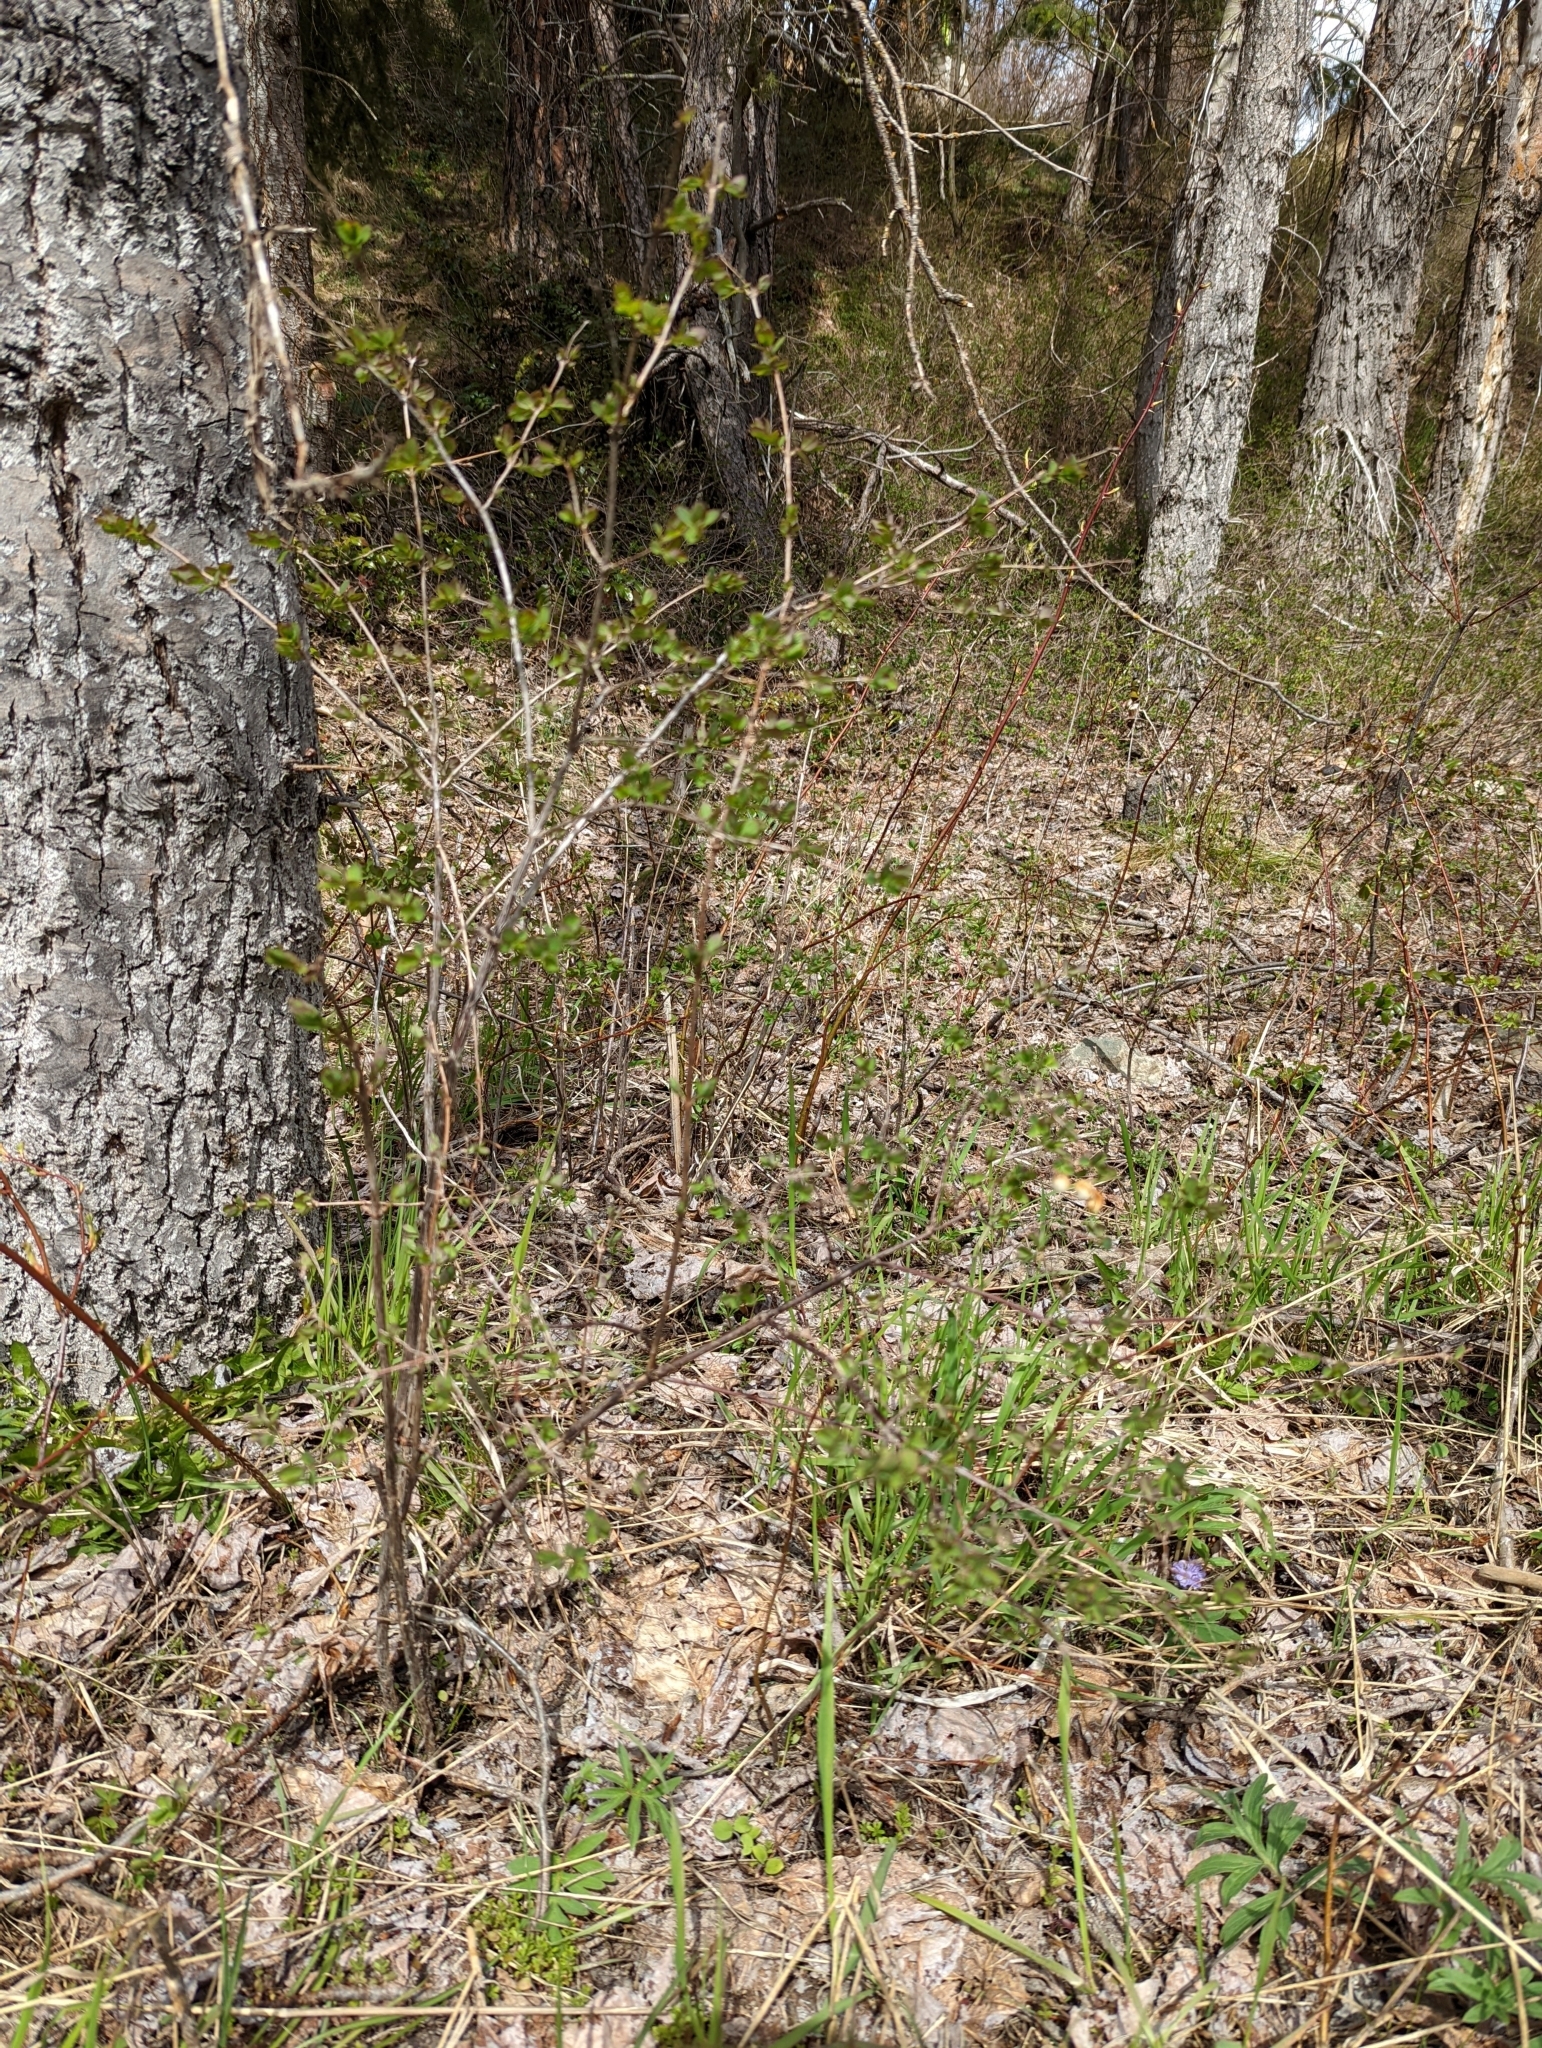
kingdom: Plantae
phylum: Tracheophyta
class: Magnoliopsida
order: Dipsacales
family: Caprifoliaceae
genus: Symphoricarpos
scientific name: Symphoricarpos albus
